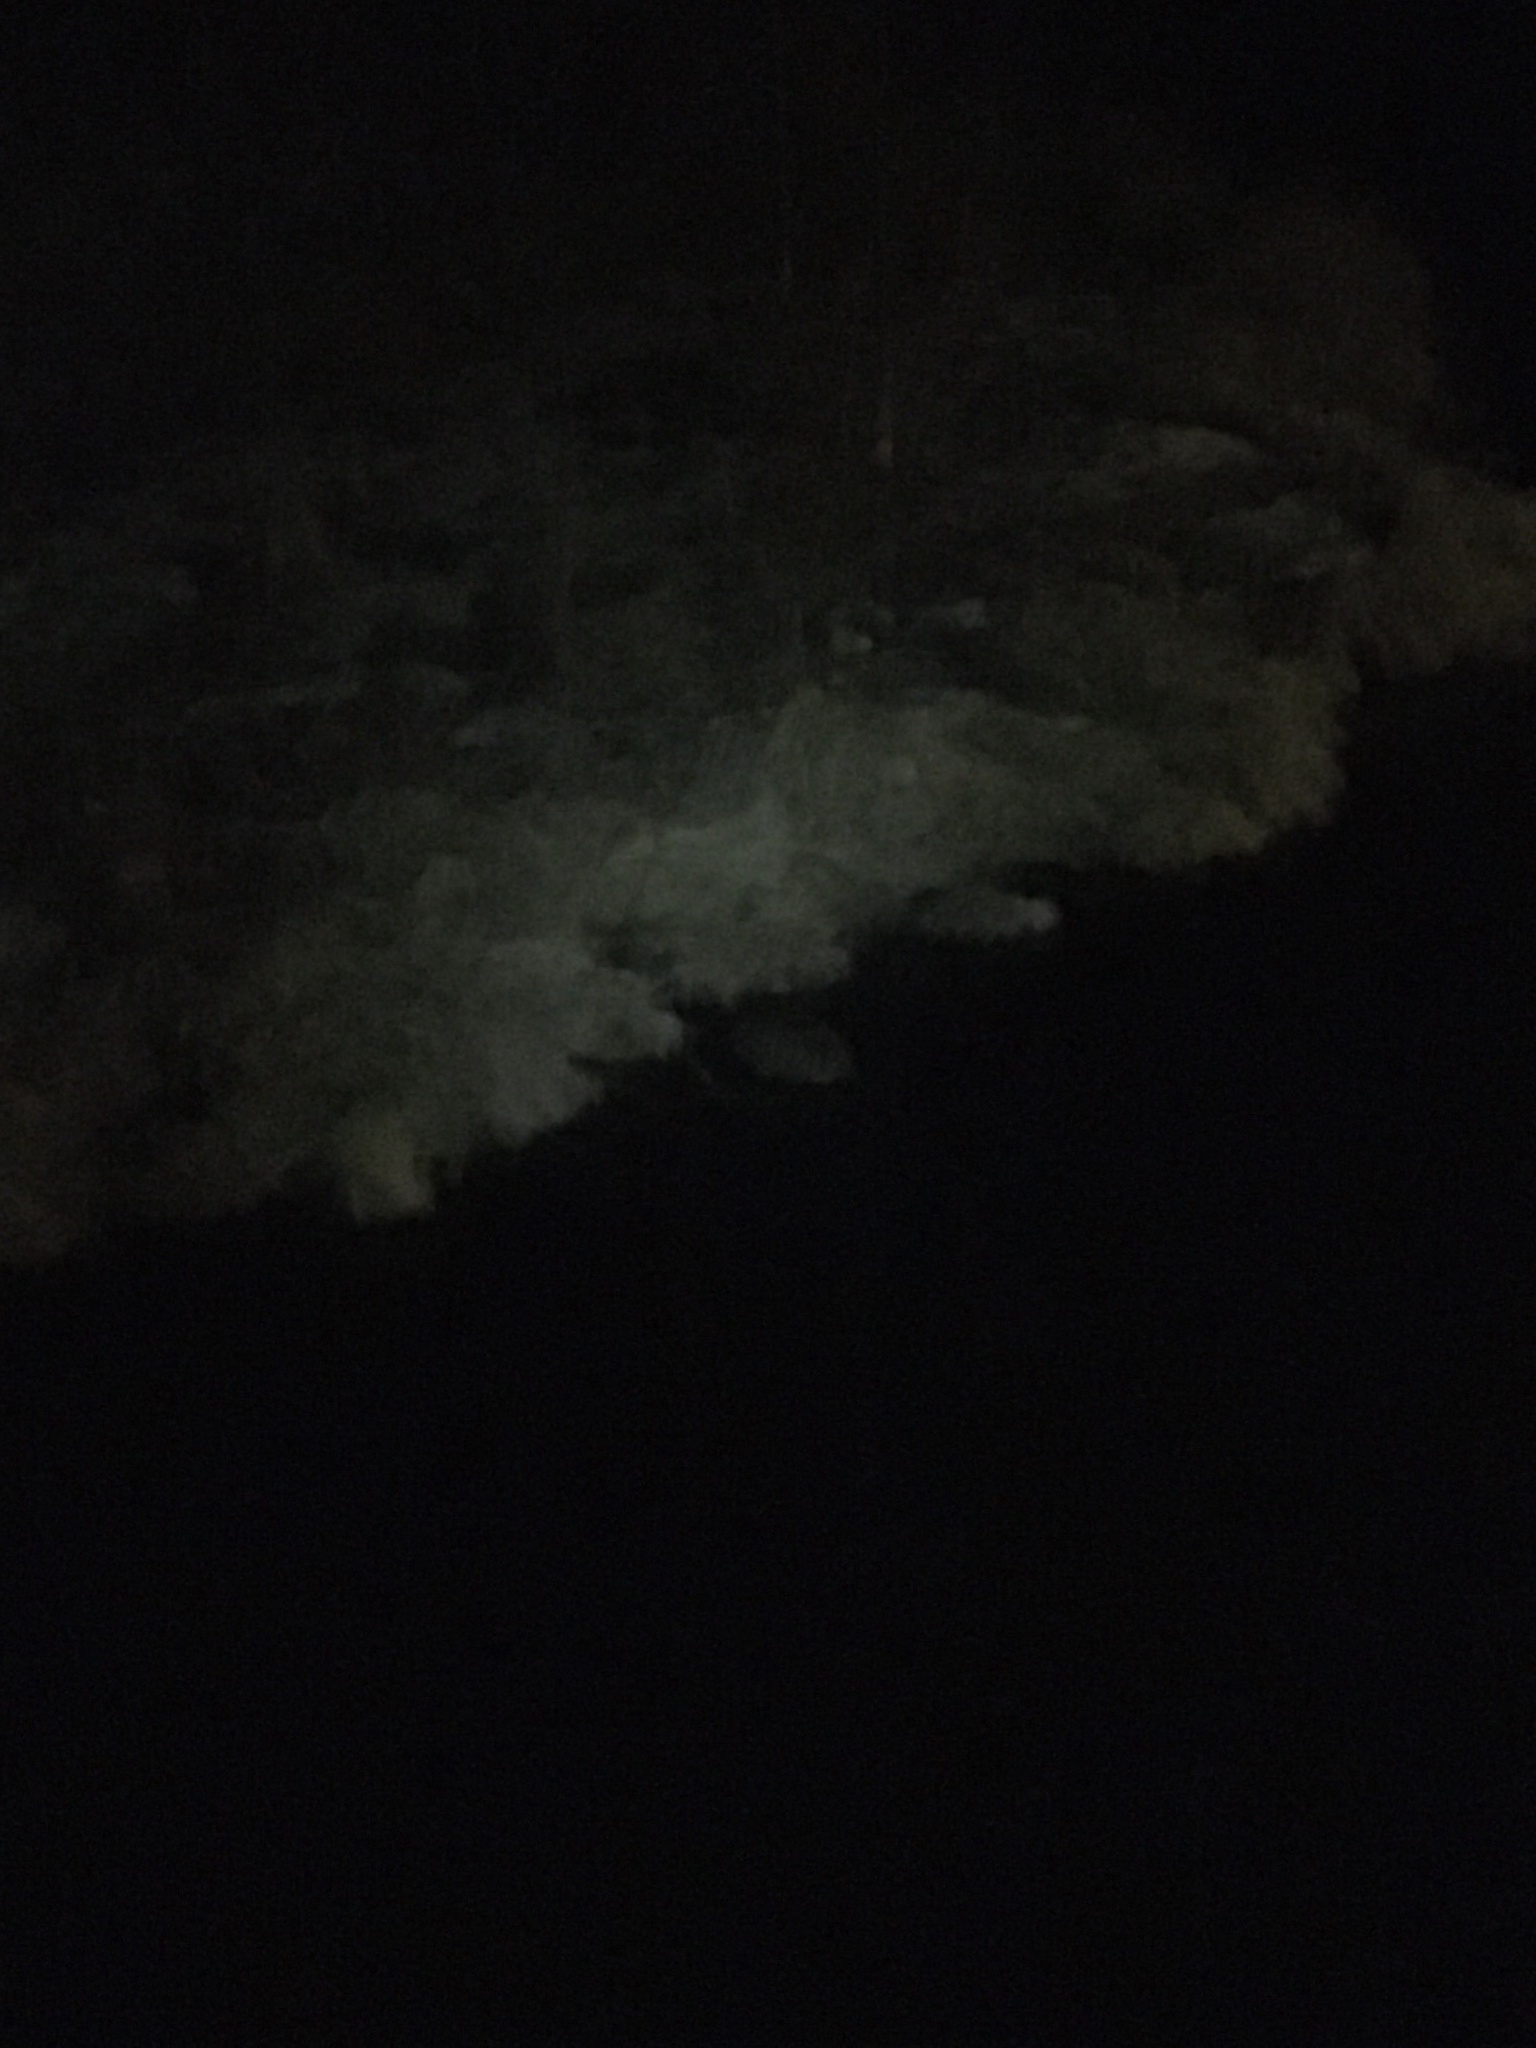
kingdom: Animalia
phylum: Chordata
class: Mammalia
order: Rodentia
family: Castoridae
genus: Castor
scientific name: Castor canadensis
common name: American beaver
